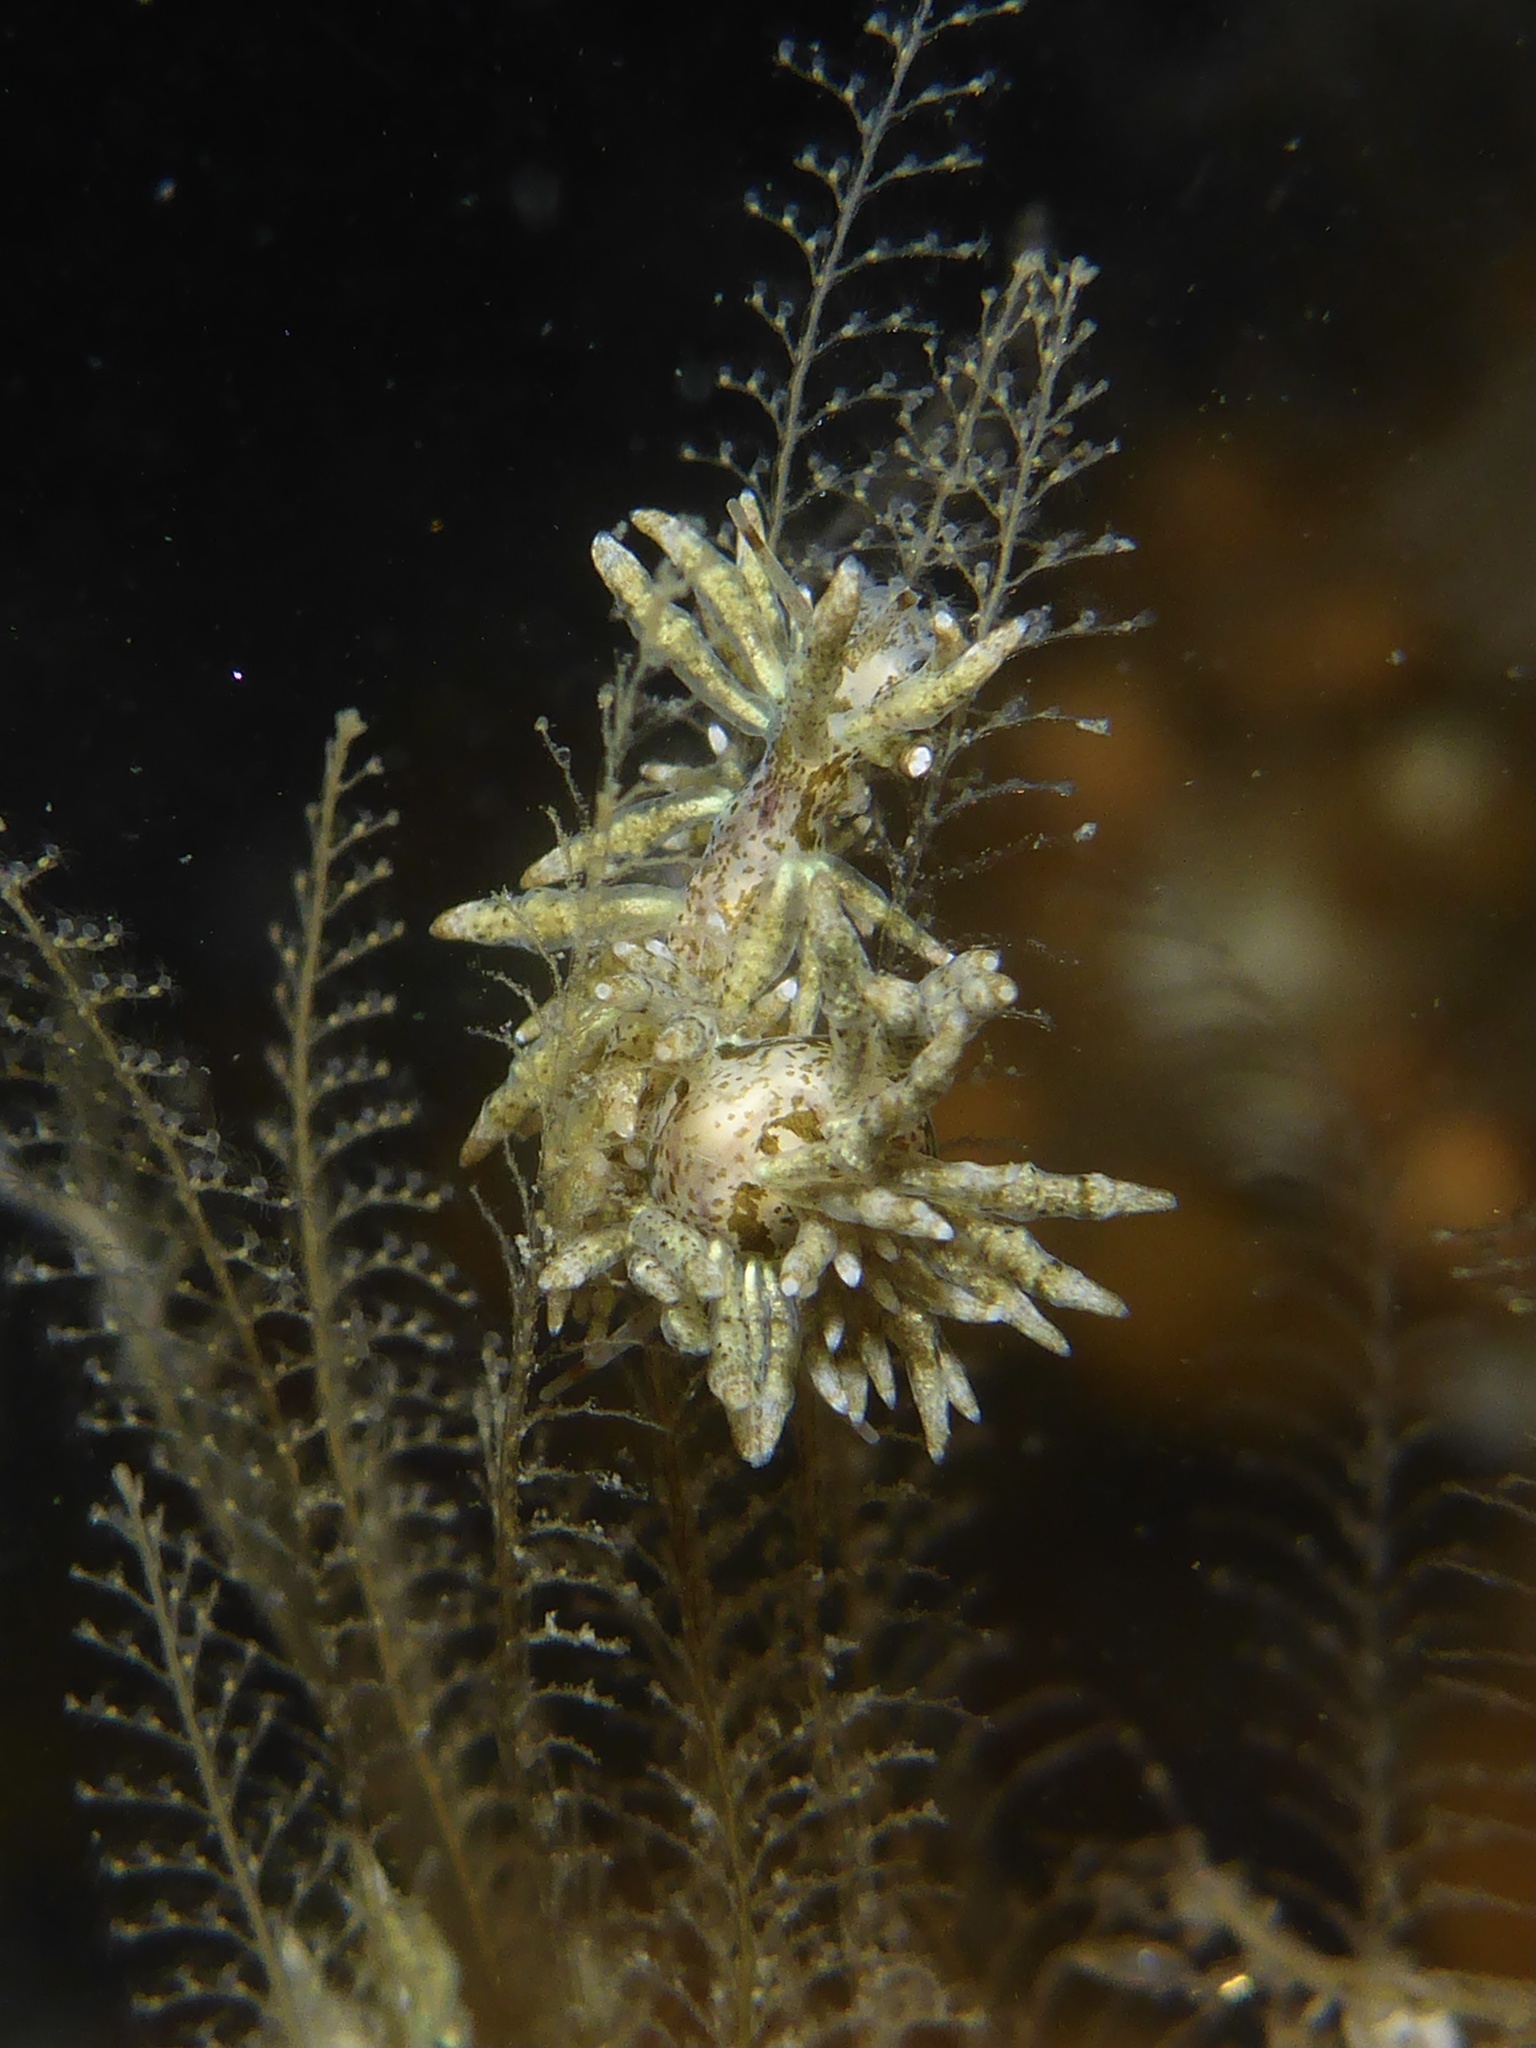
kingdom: Animalia
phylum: Mollusca
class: Gastropoda
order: Nudibranchia
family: Eubranchidae
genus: Eubranchus
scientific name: Eubranchus rustyus
